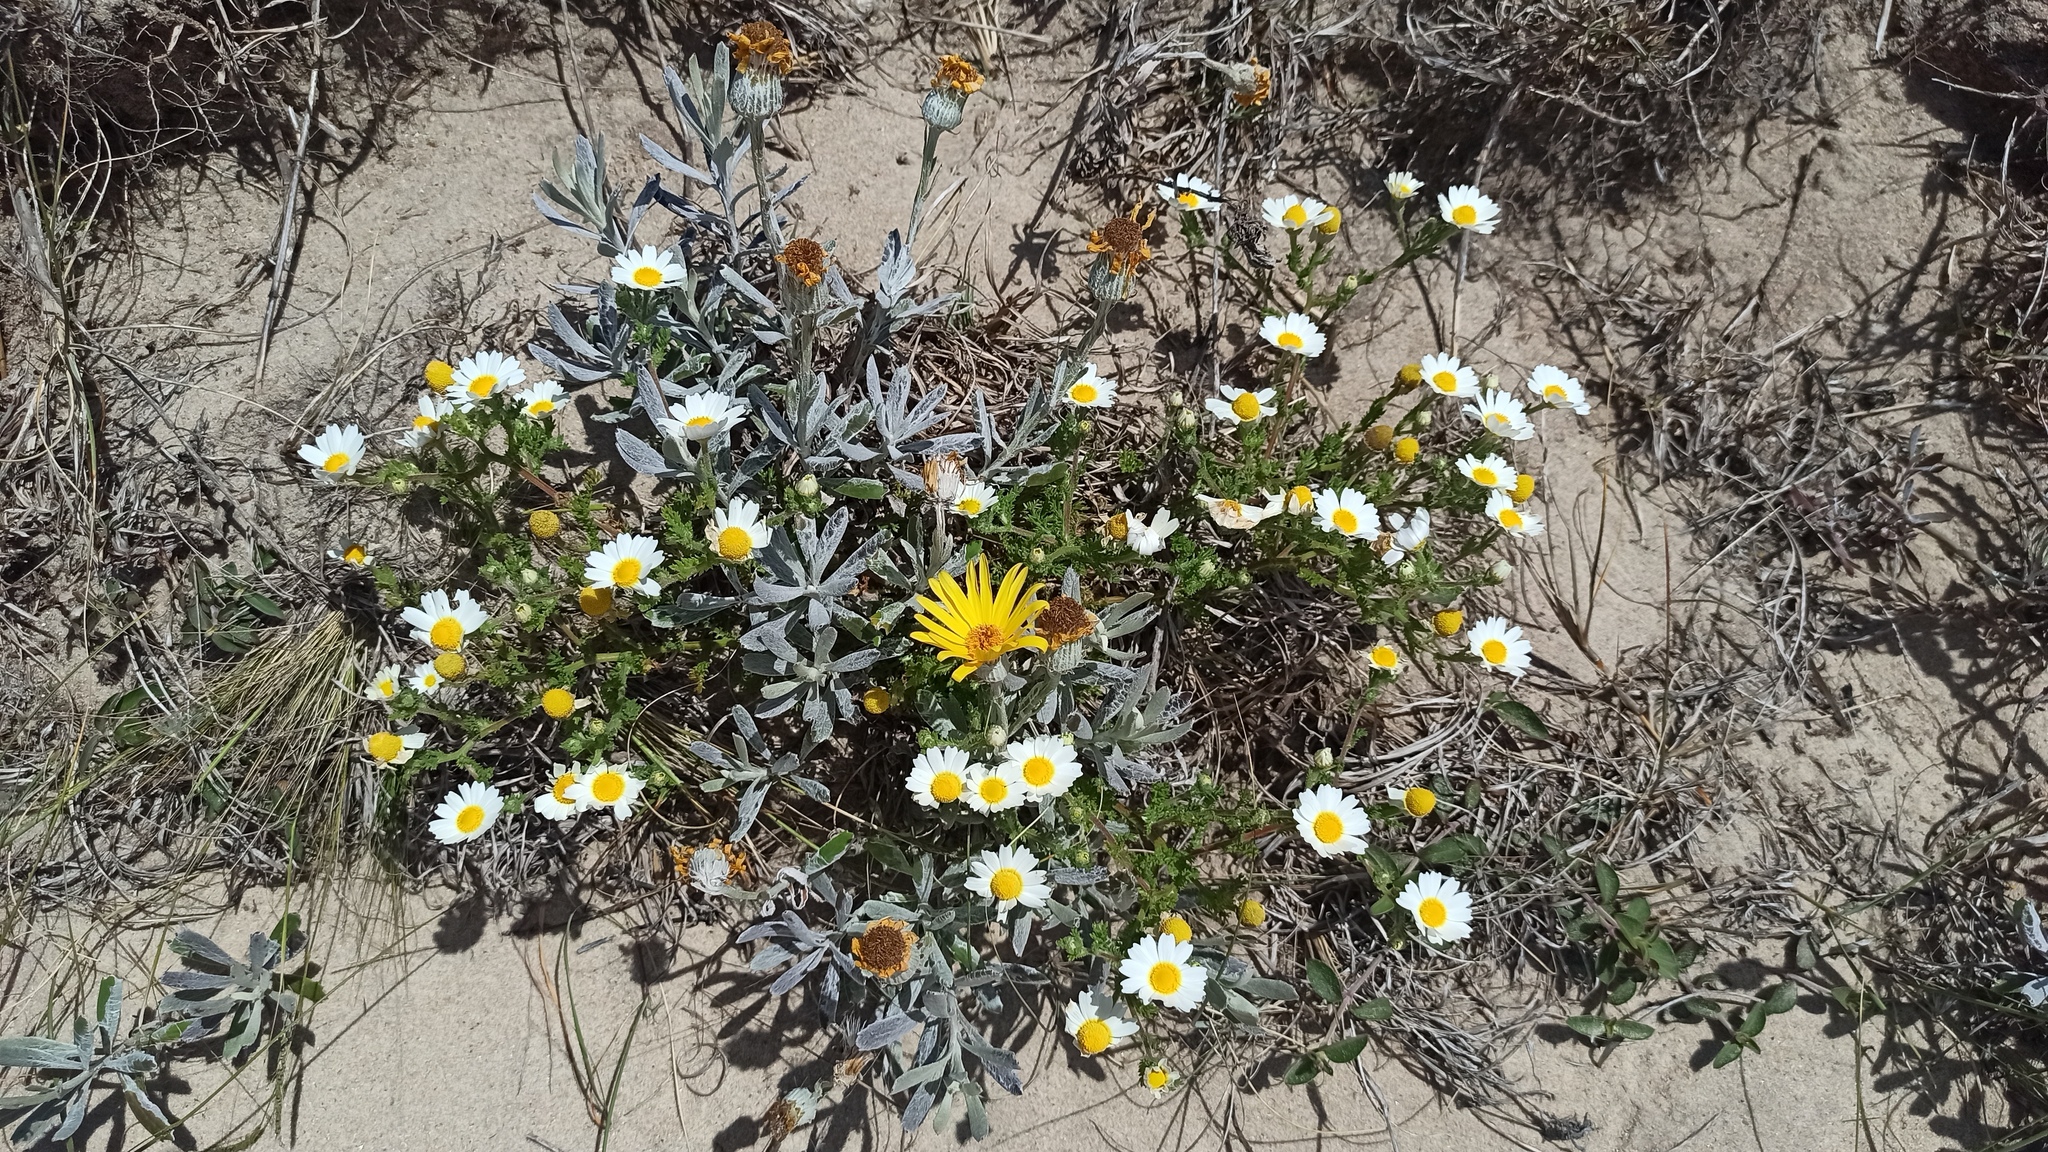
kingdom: Plantae
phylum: Tracheophyta
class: Magnoliopsida
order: Asterales
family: Asteraceae
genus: Cladanthus
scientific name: Cladanthus mixtus
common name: Weedy dogfennel
